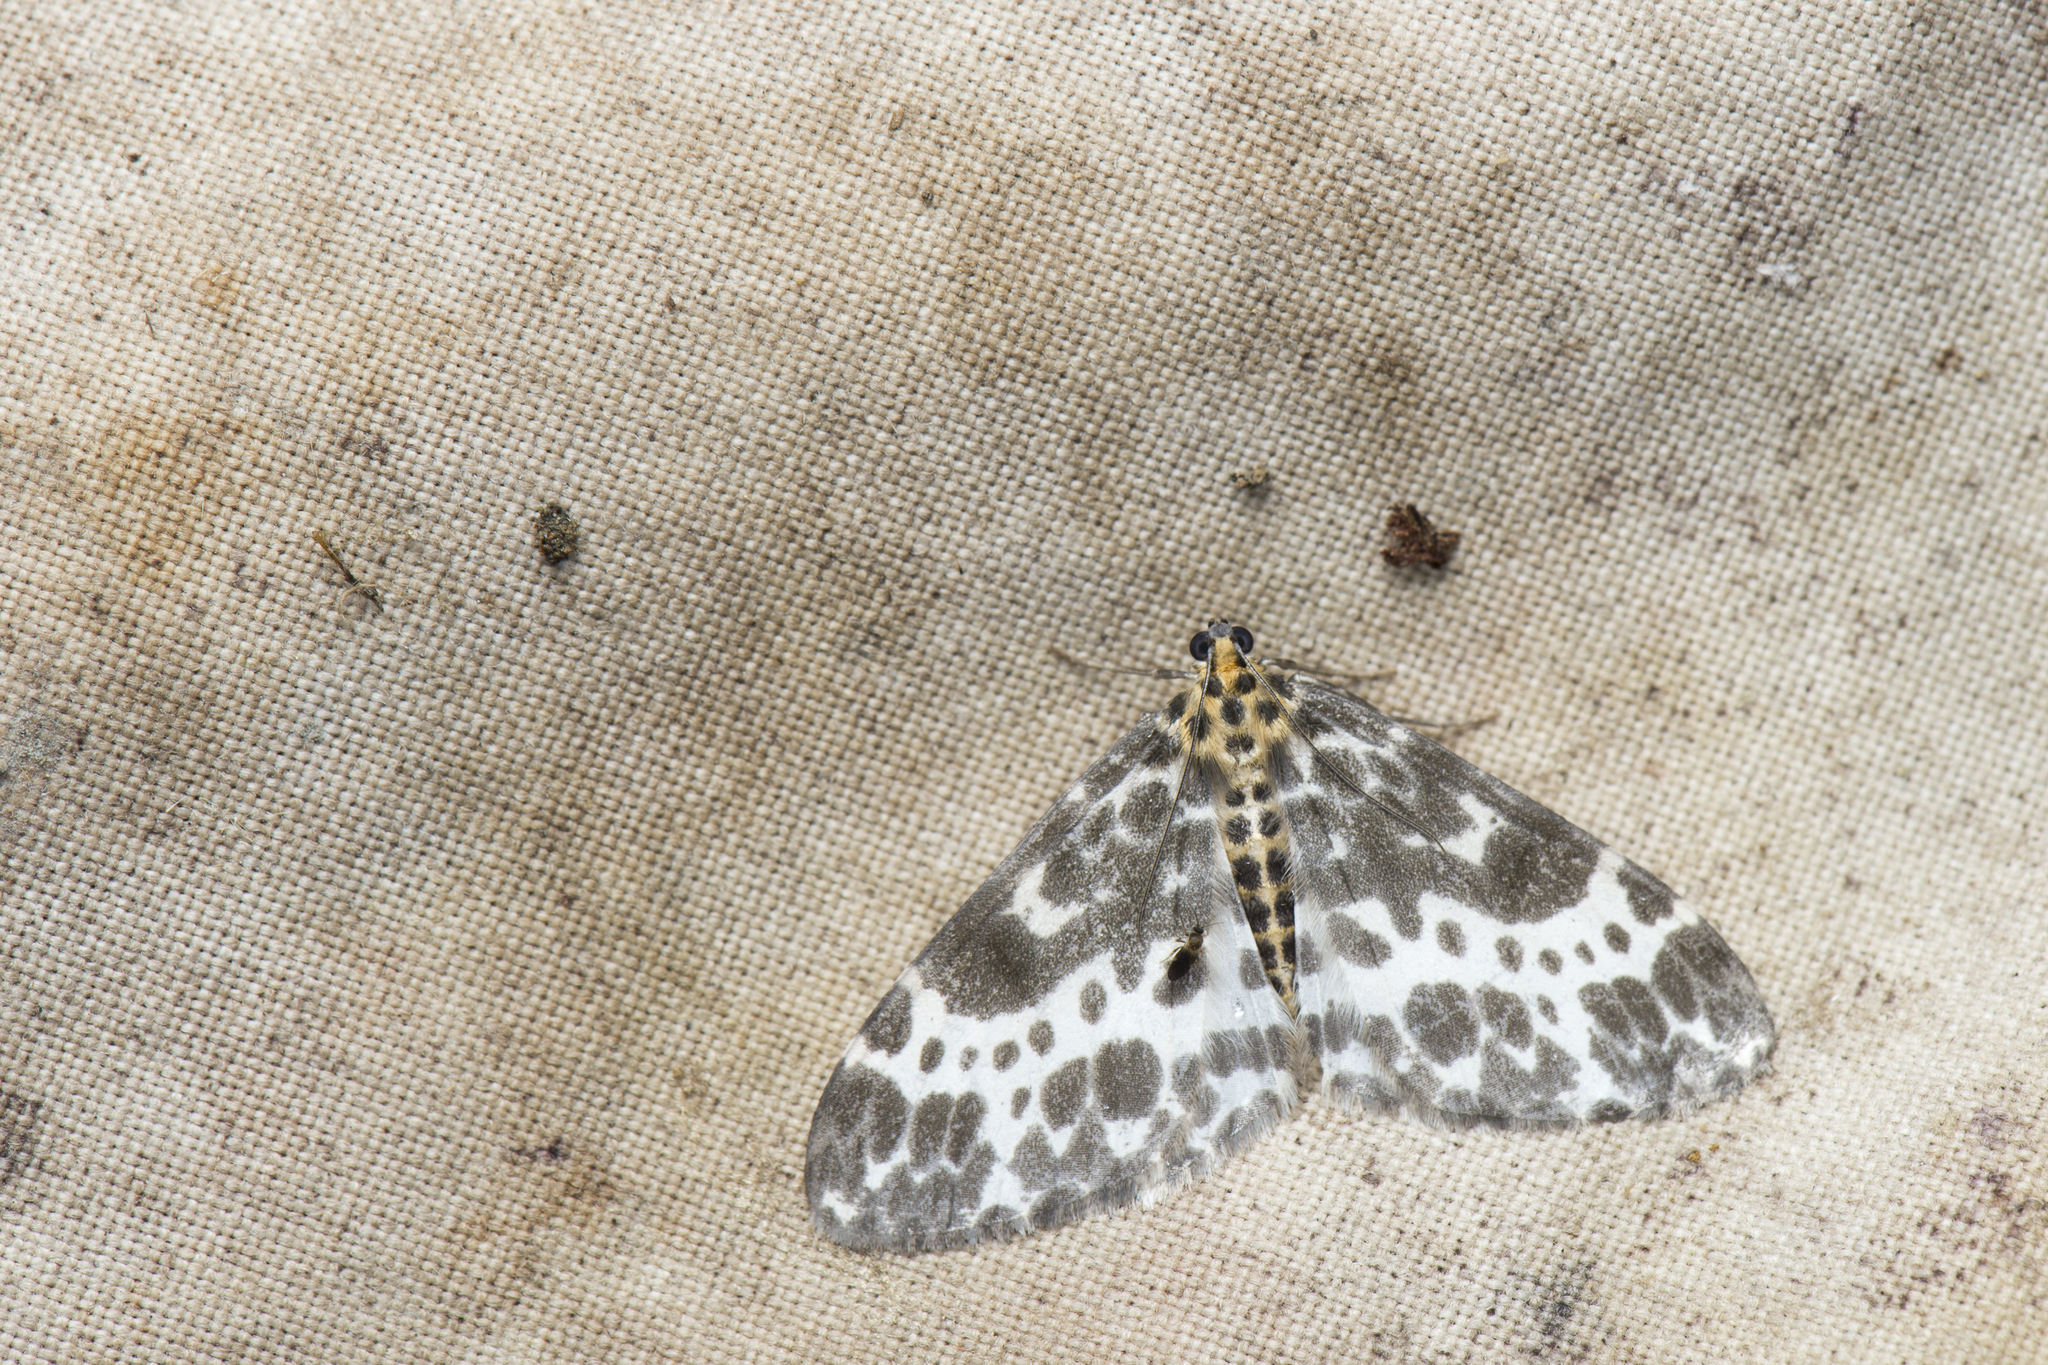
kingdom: Animalia
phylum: Arthropoda
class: Insecta
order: Lepidoptera
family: Geometridae
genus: Dilophodes
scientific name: Dilophodes elegans
